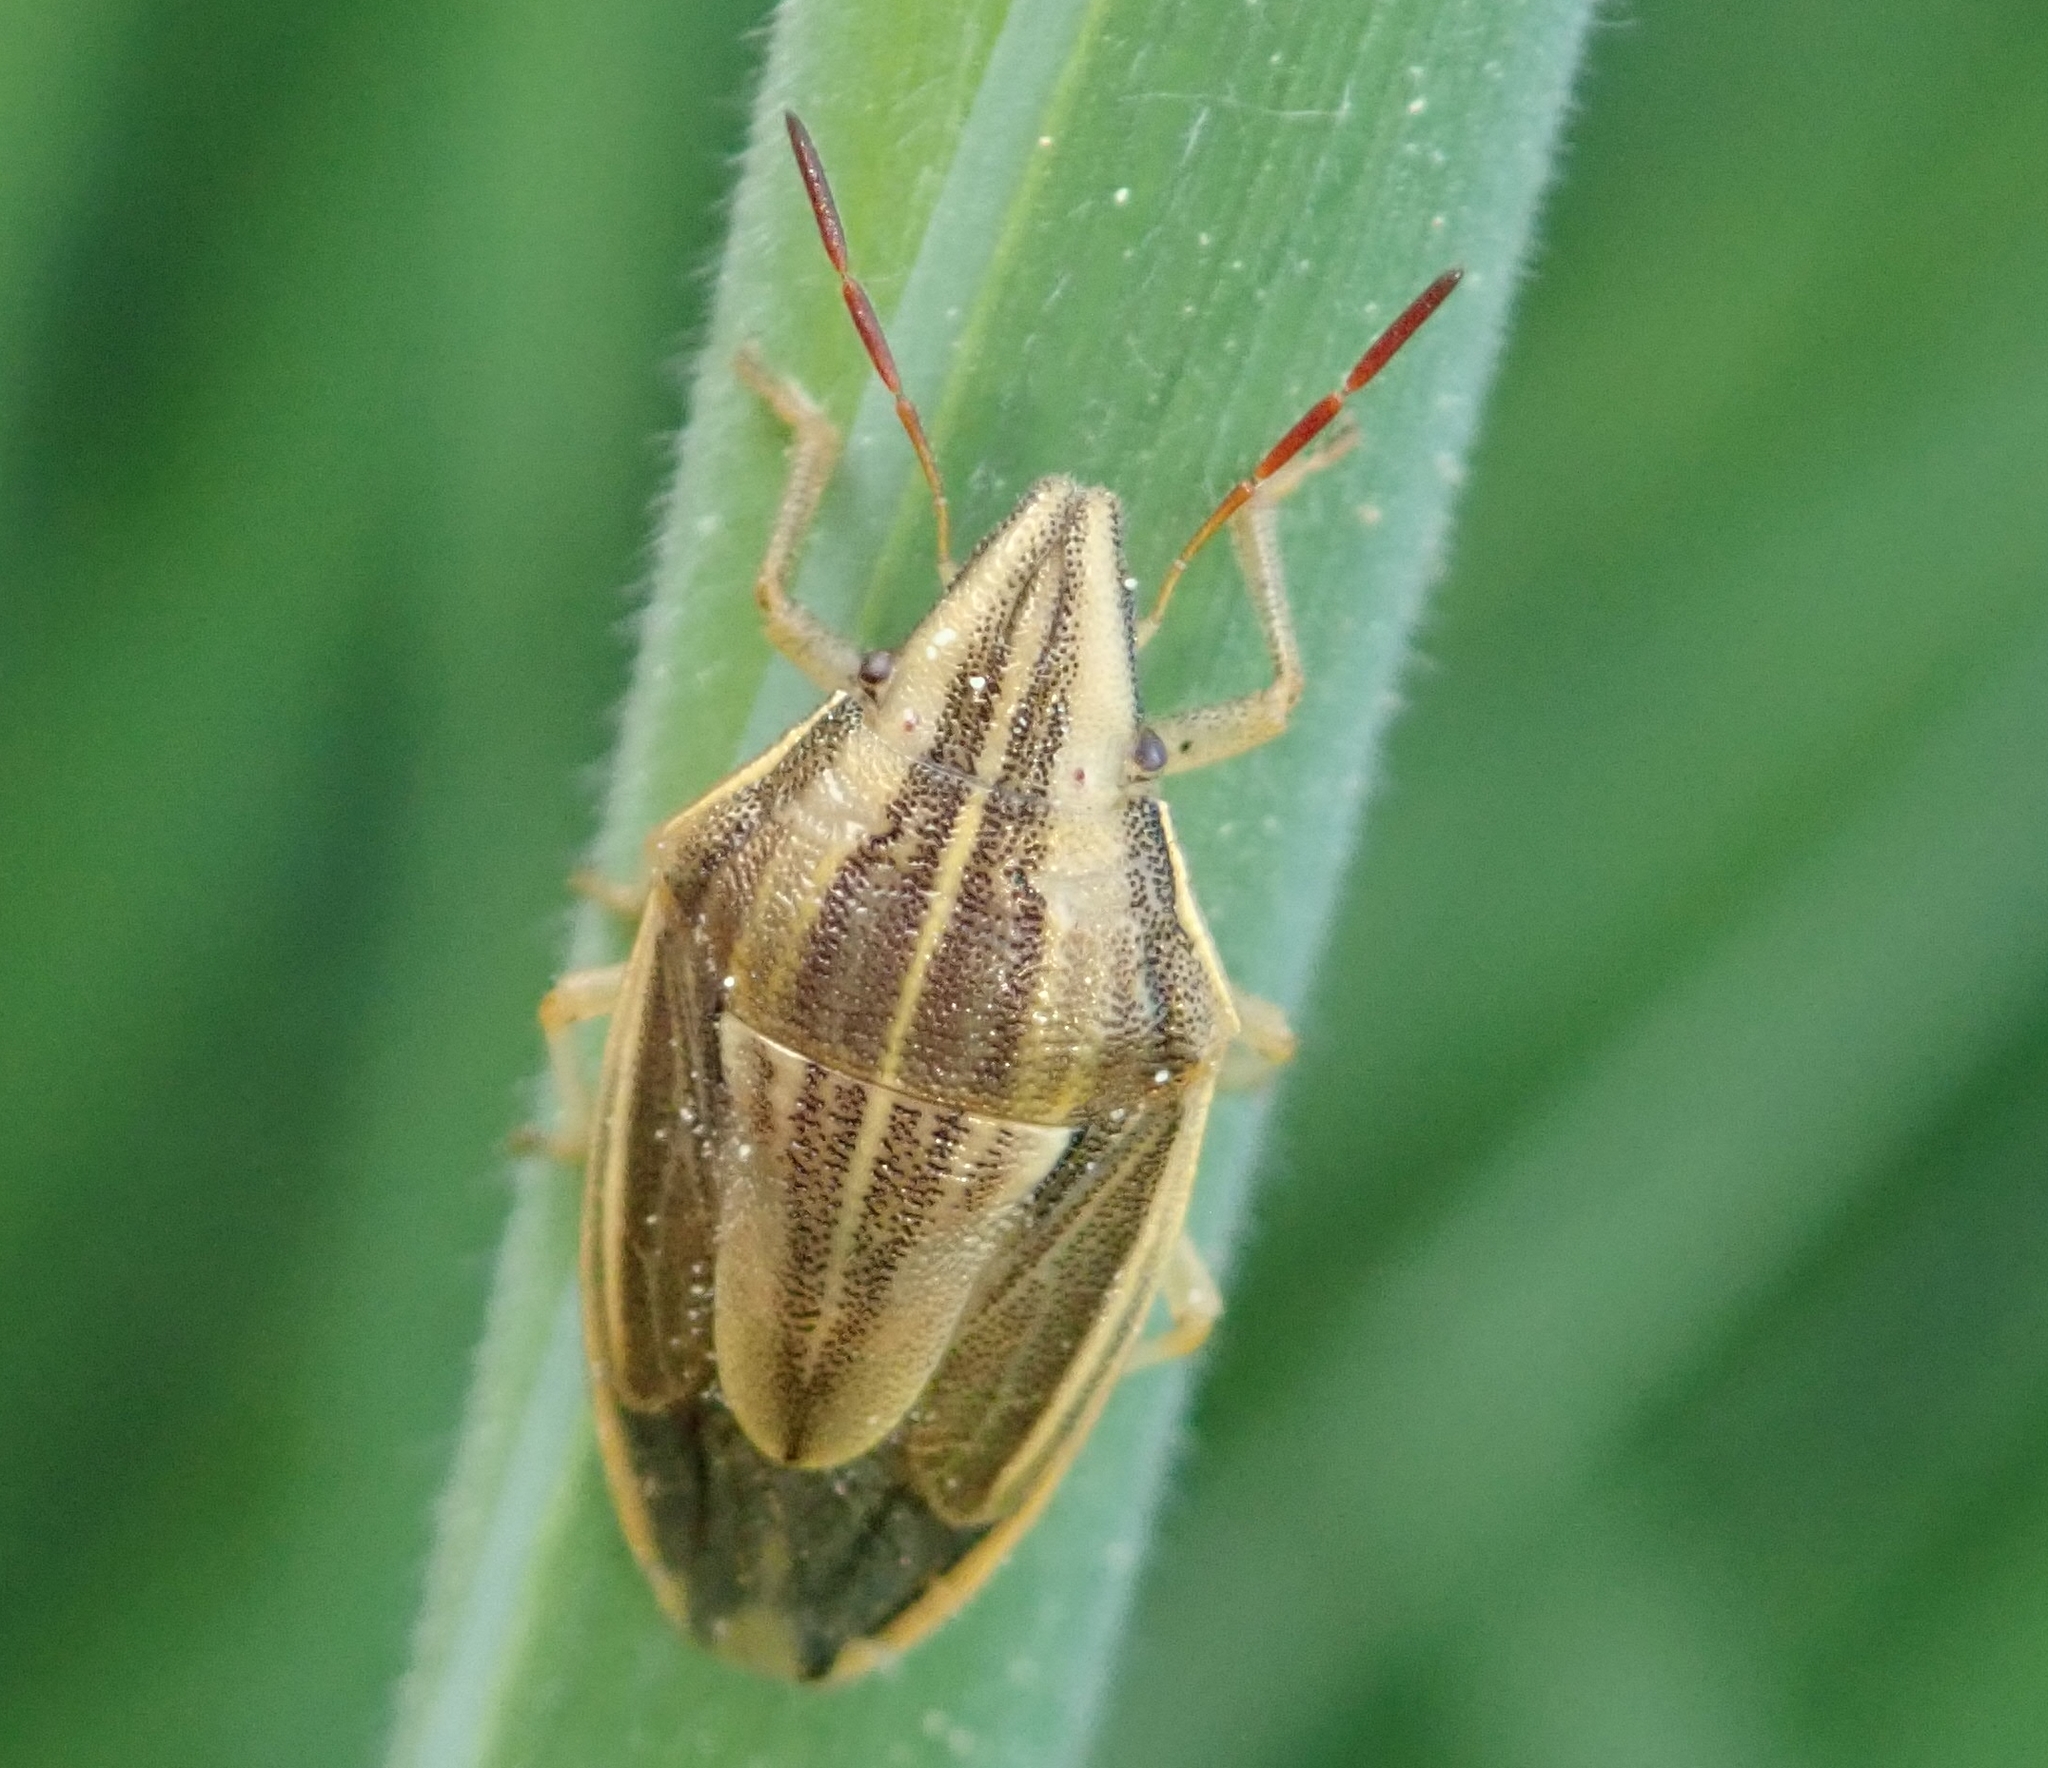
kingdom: Animalia
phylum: Arthropoda
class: Insecta
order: Hemiptera
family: Pentatomidae
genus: Aelia
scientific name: Aelia acuminata
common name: Bishop's mitre
